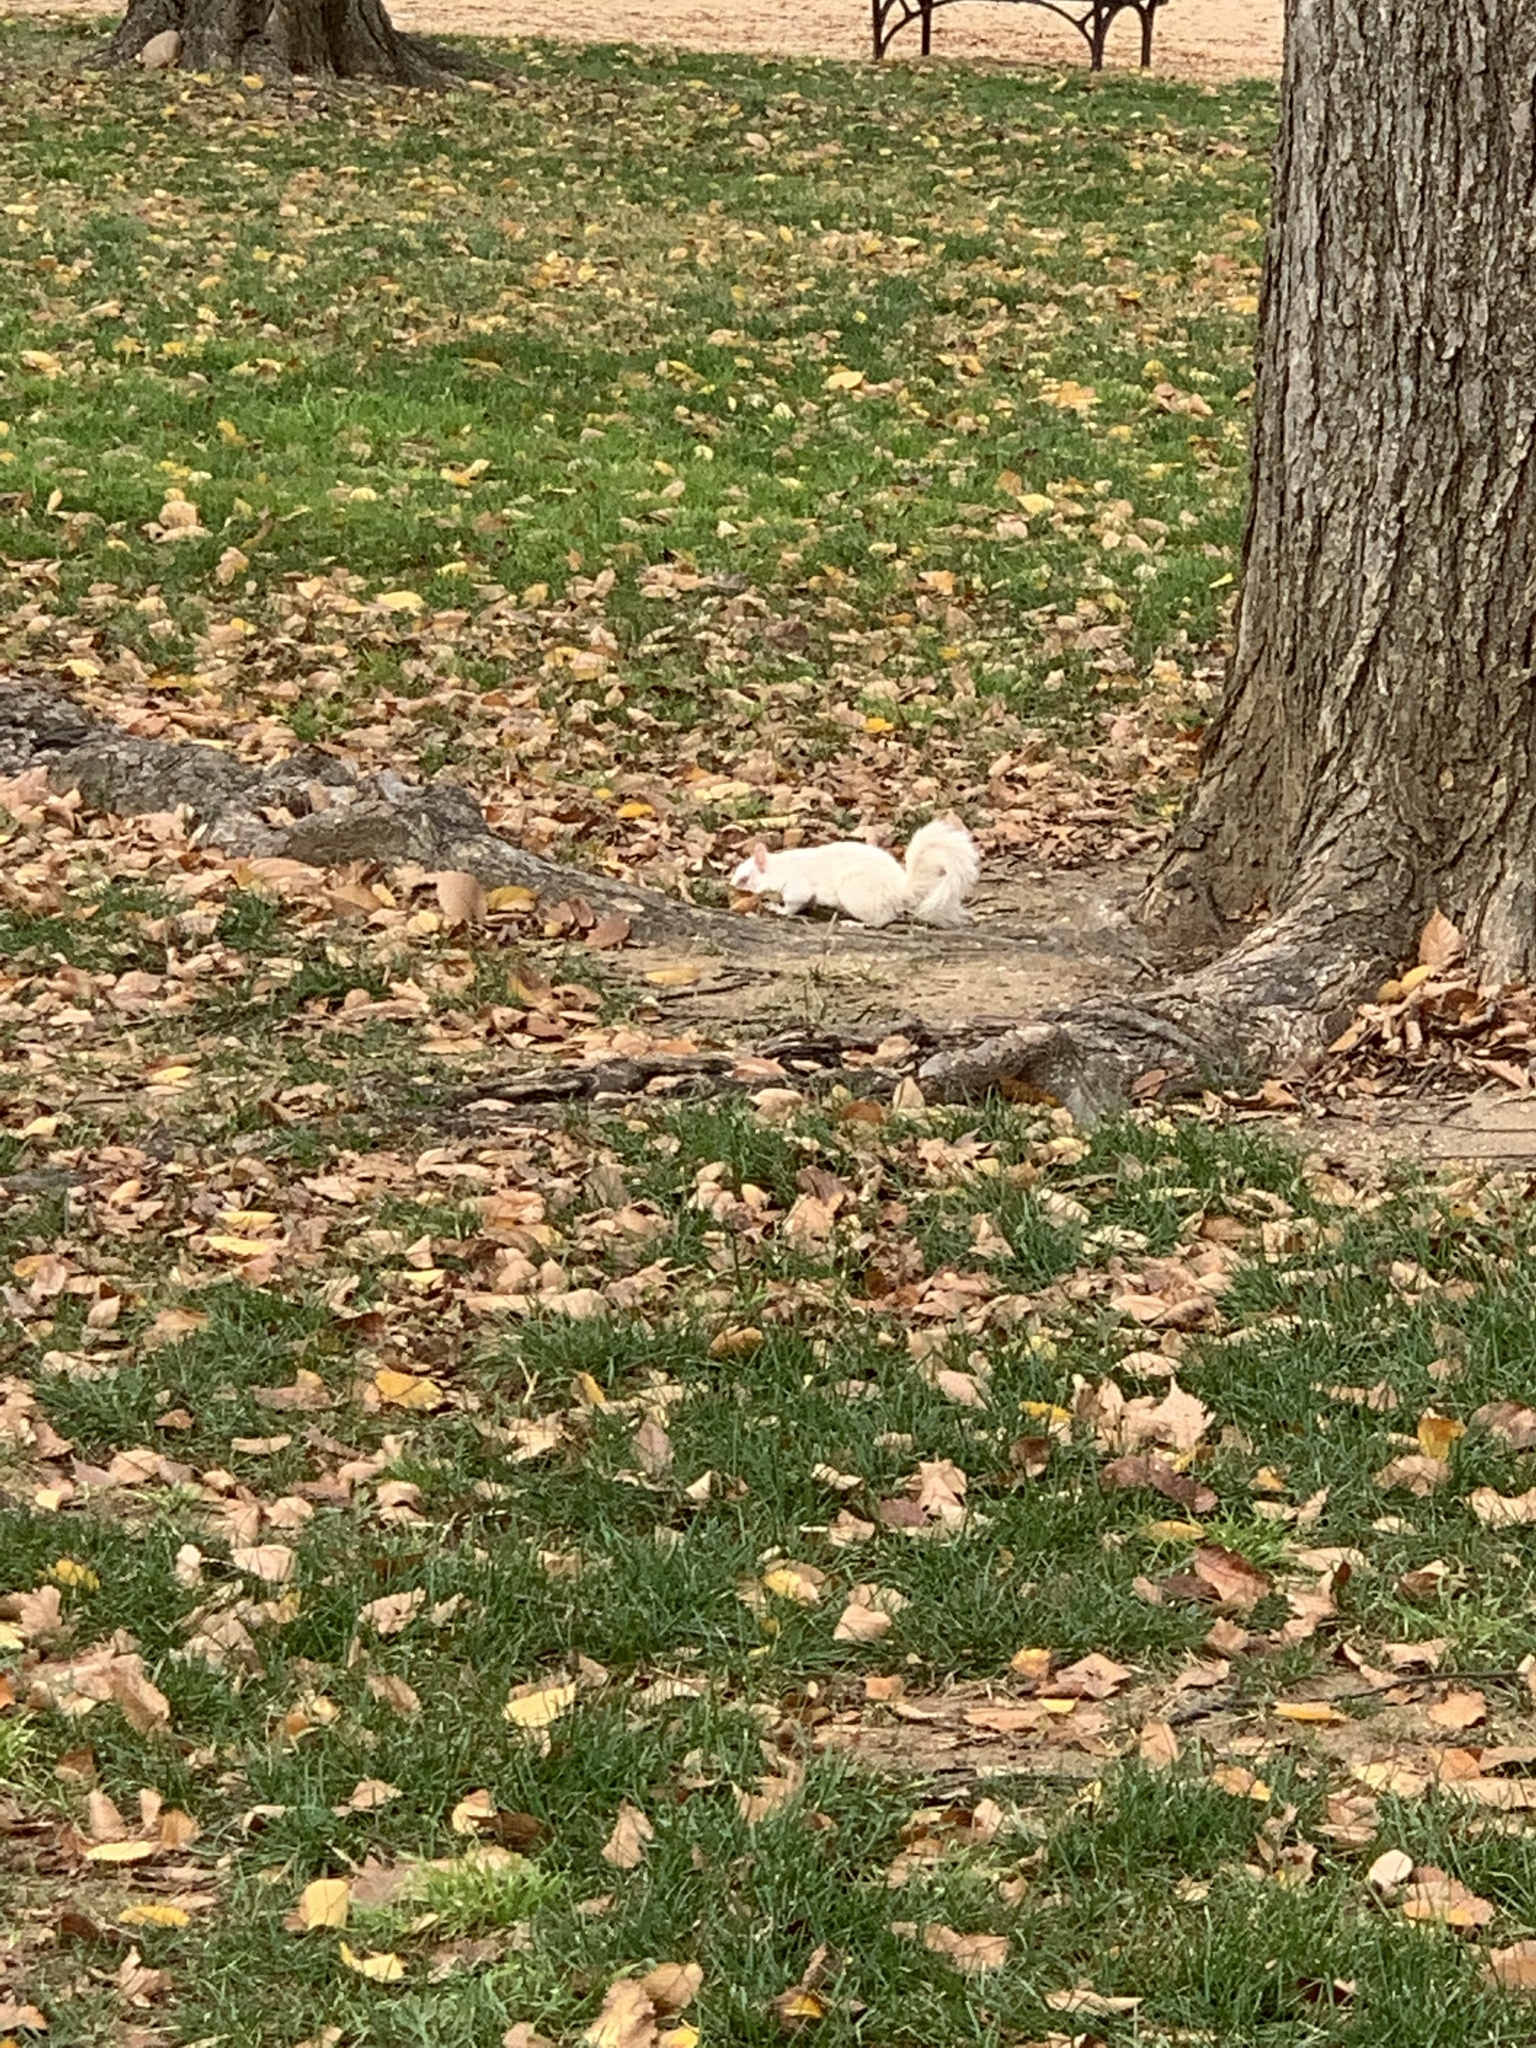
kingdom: Animalia
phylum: Chordata
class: Mammalia
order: Rodentia
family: Sciuridae
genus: Sciurus
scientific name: Sciurus carolinensis
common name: Eastern gray squirrel
